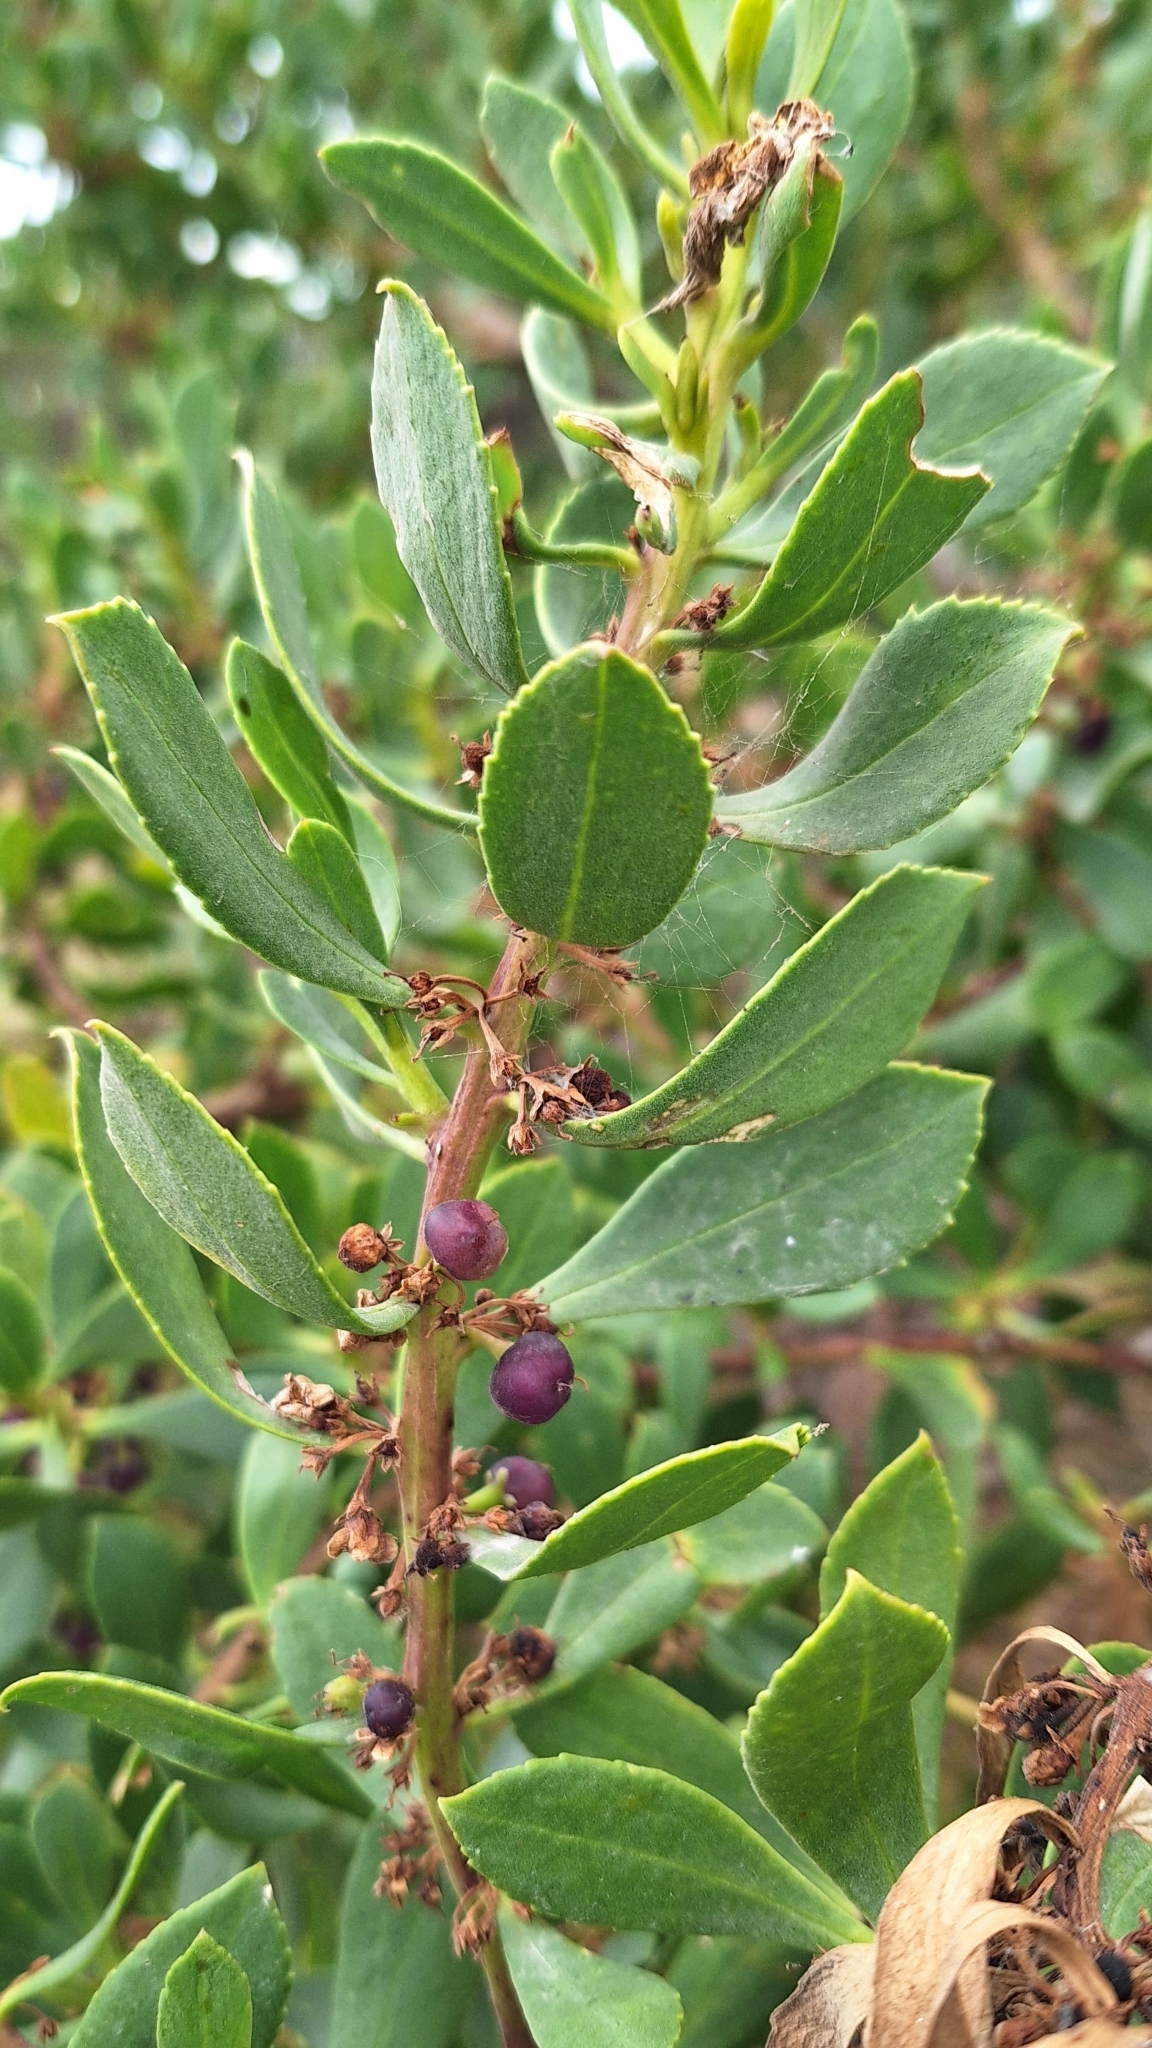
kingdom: Plantae
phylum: Tracheophyta
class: Magnoliopsida
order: Lamiales
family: Scrophulariaceae
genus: Myoporum
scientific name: Myoporum insulare
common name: Common boobialla
